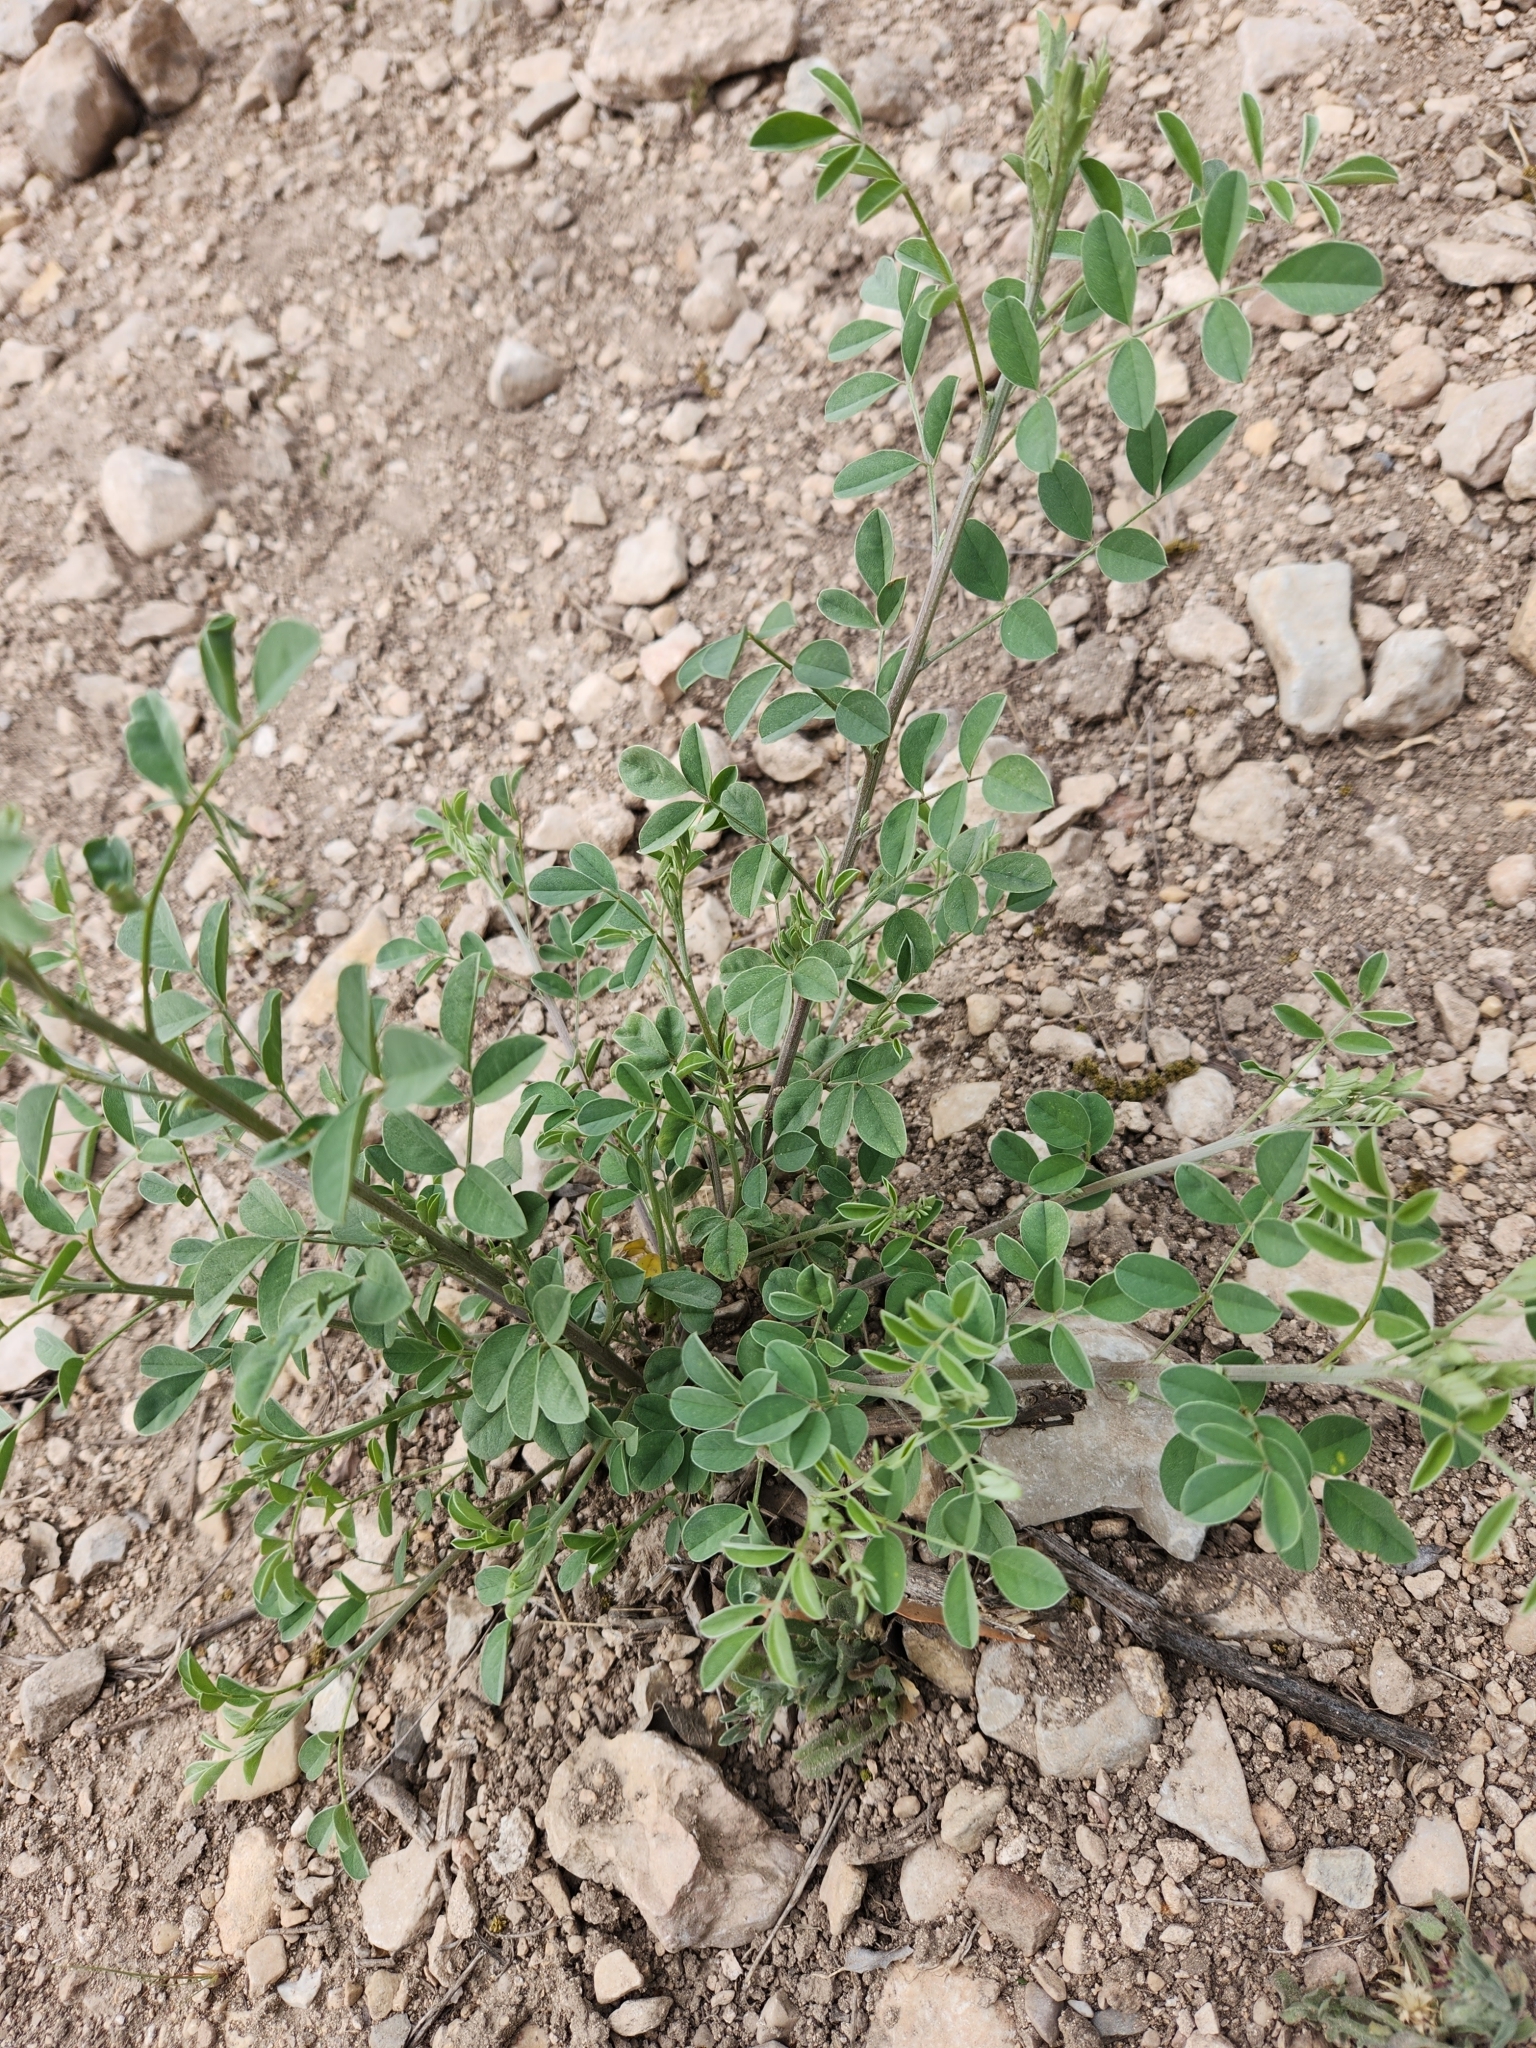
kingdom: Plantae
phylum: Tracheophyta
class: Magnoliopsida
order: Fabales
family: Fabaceae
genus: Indigofera
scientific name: Indigofera lindheimeriana
